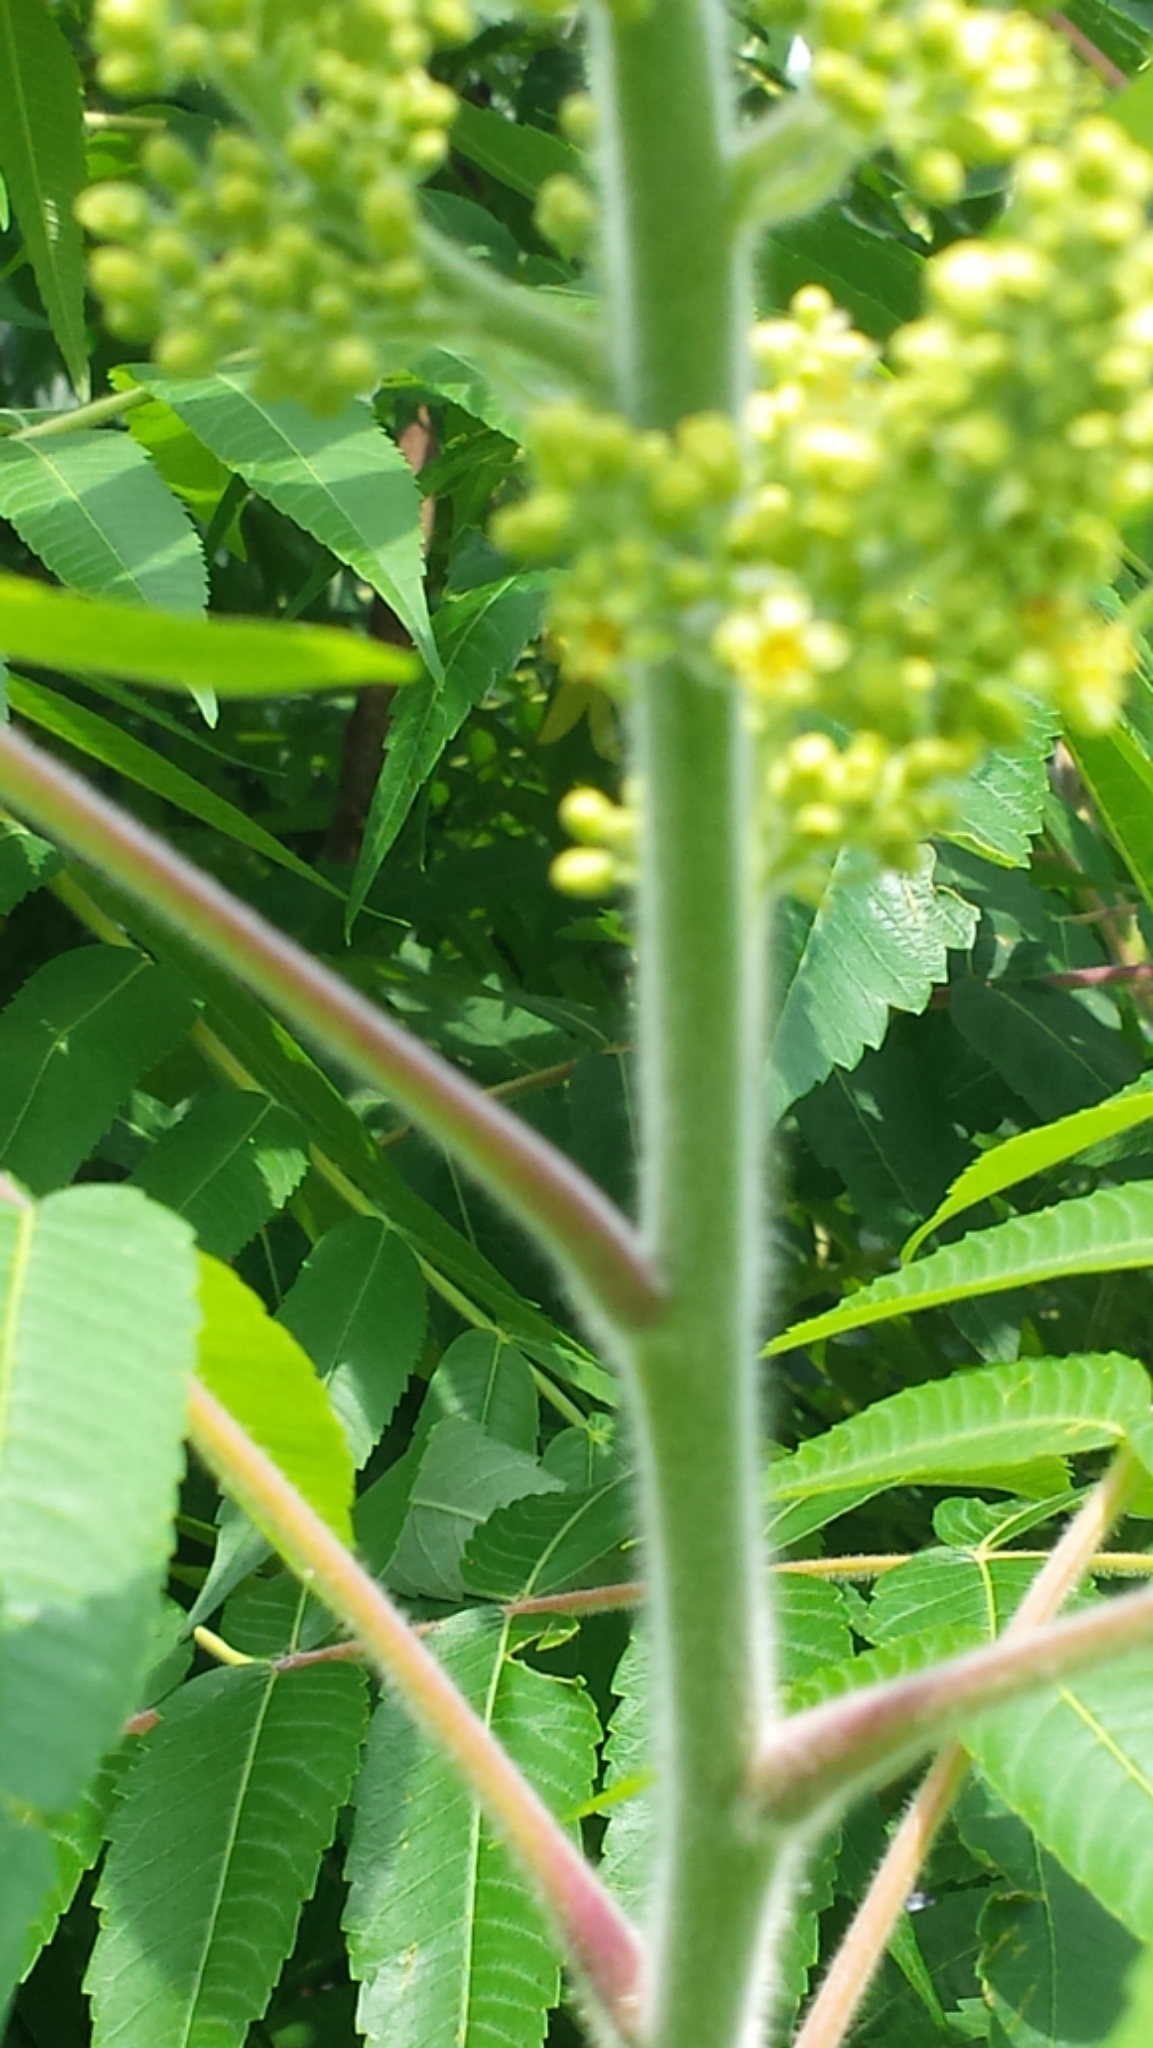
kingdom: Plantae
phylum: Tracheophyta
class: Magnoliopsida
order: Sapindales
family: Anacardiaceae
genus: Rhus
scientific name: Rhus typhina
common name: Staghorn sumac
